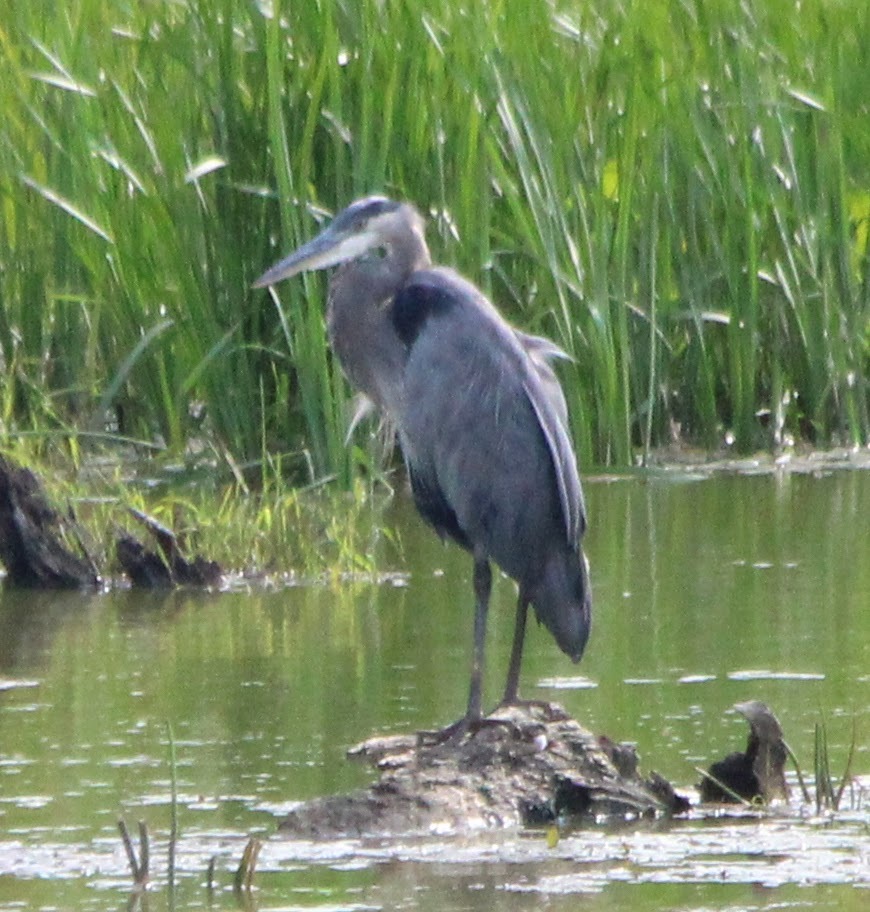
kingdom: Animalia
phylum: Chordata
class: Aves
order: Pelecaniformes
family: Ardeidae
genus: Ardea
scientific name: Ardea herodias
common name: Great blue heron
